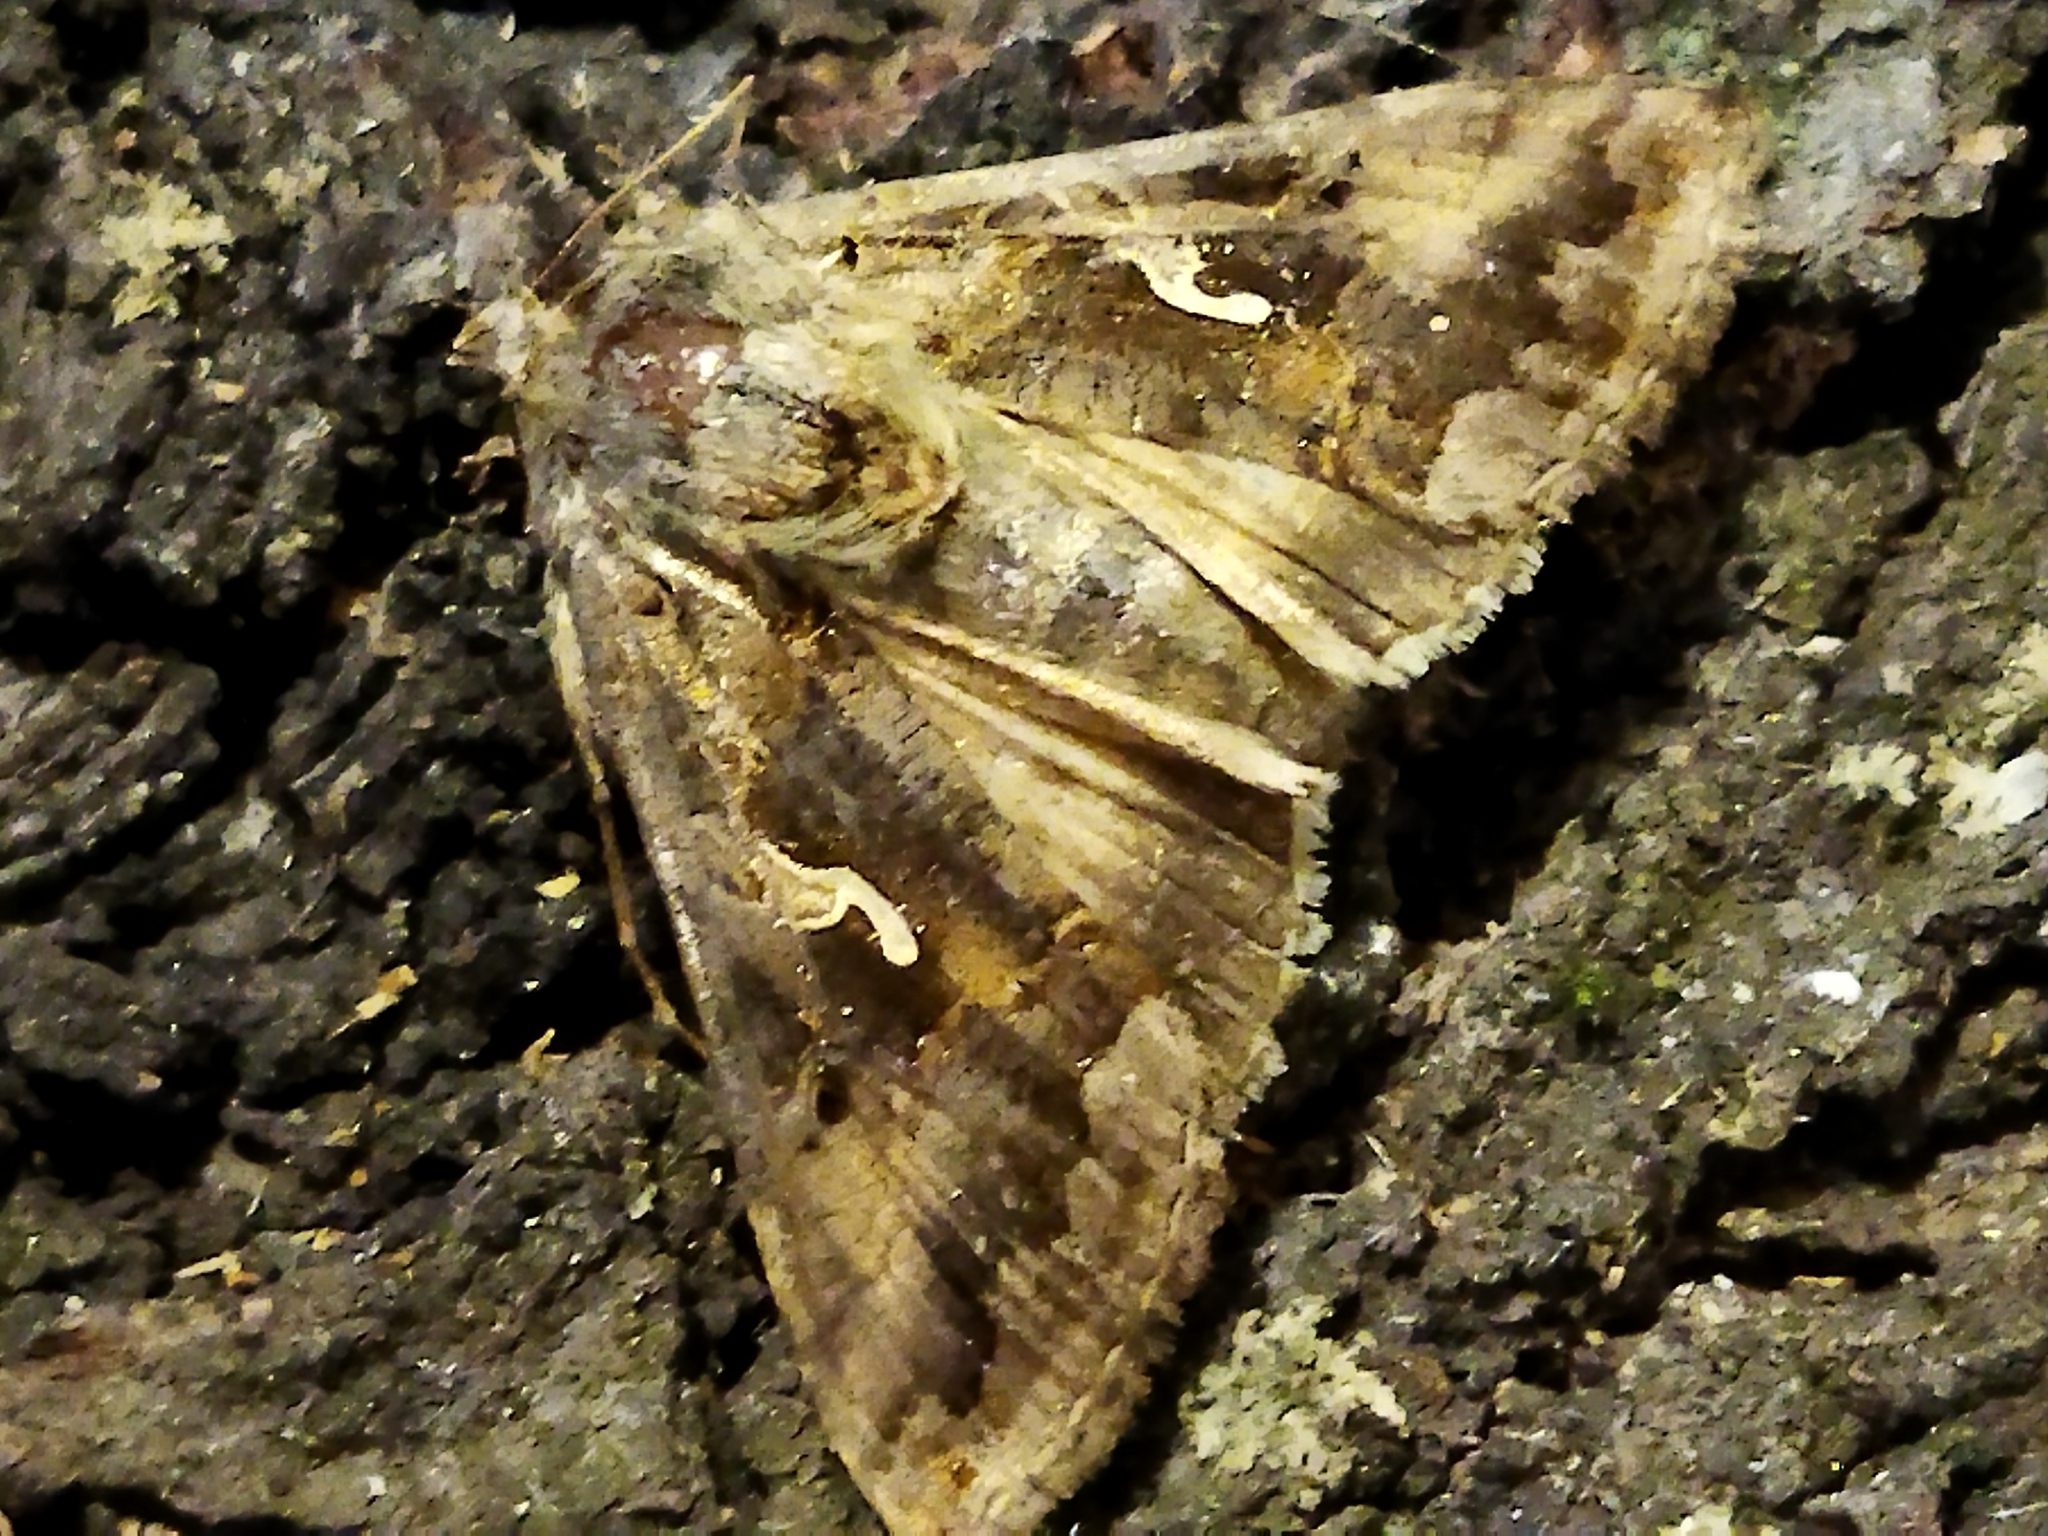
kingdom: Animalia
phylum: Arthropoda
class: Insecta
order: Lepidoptera
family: Noctuidae
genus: Autographa
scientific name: Autographa gamma
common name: Silver y
